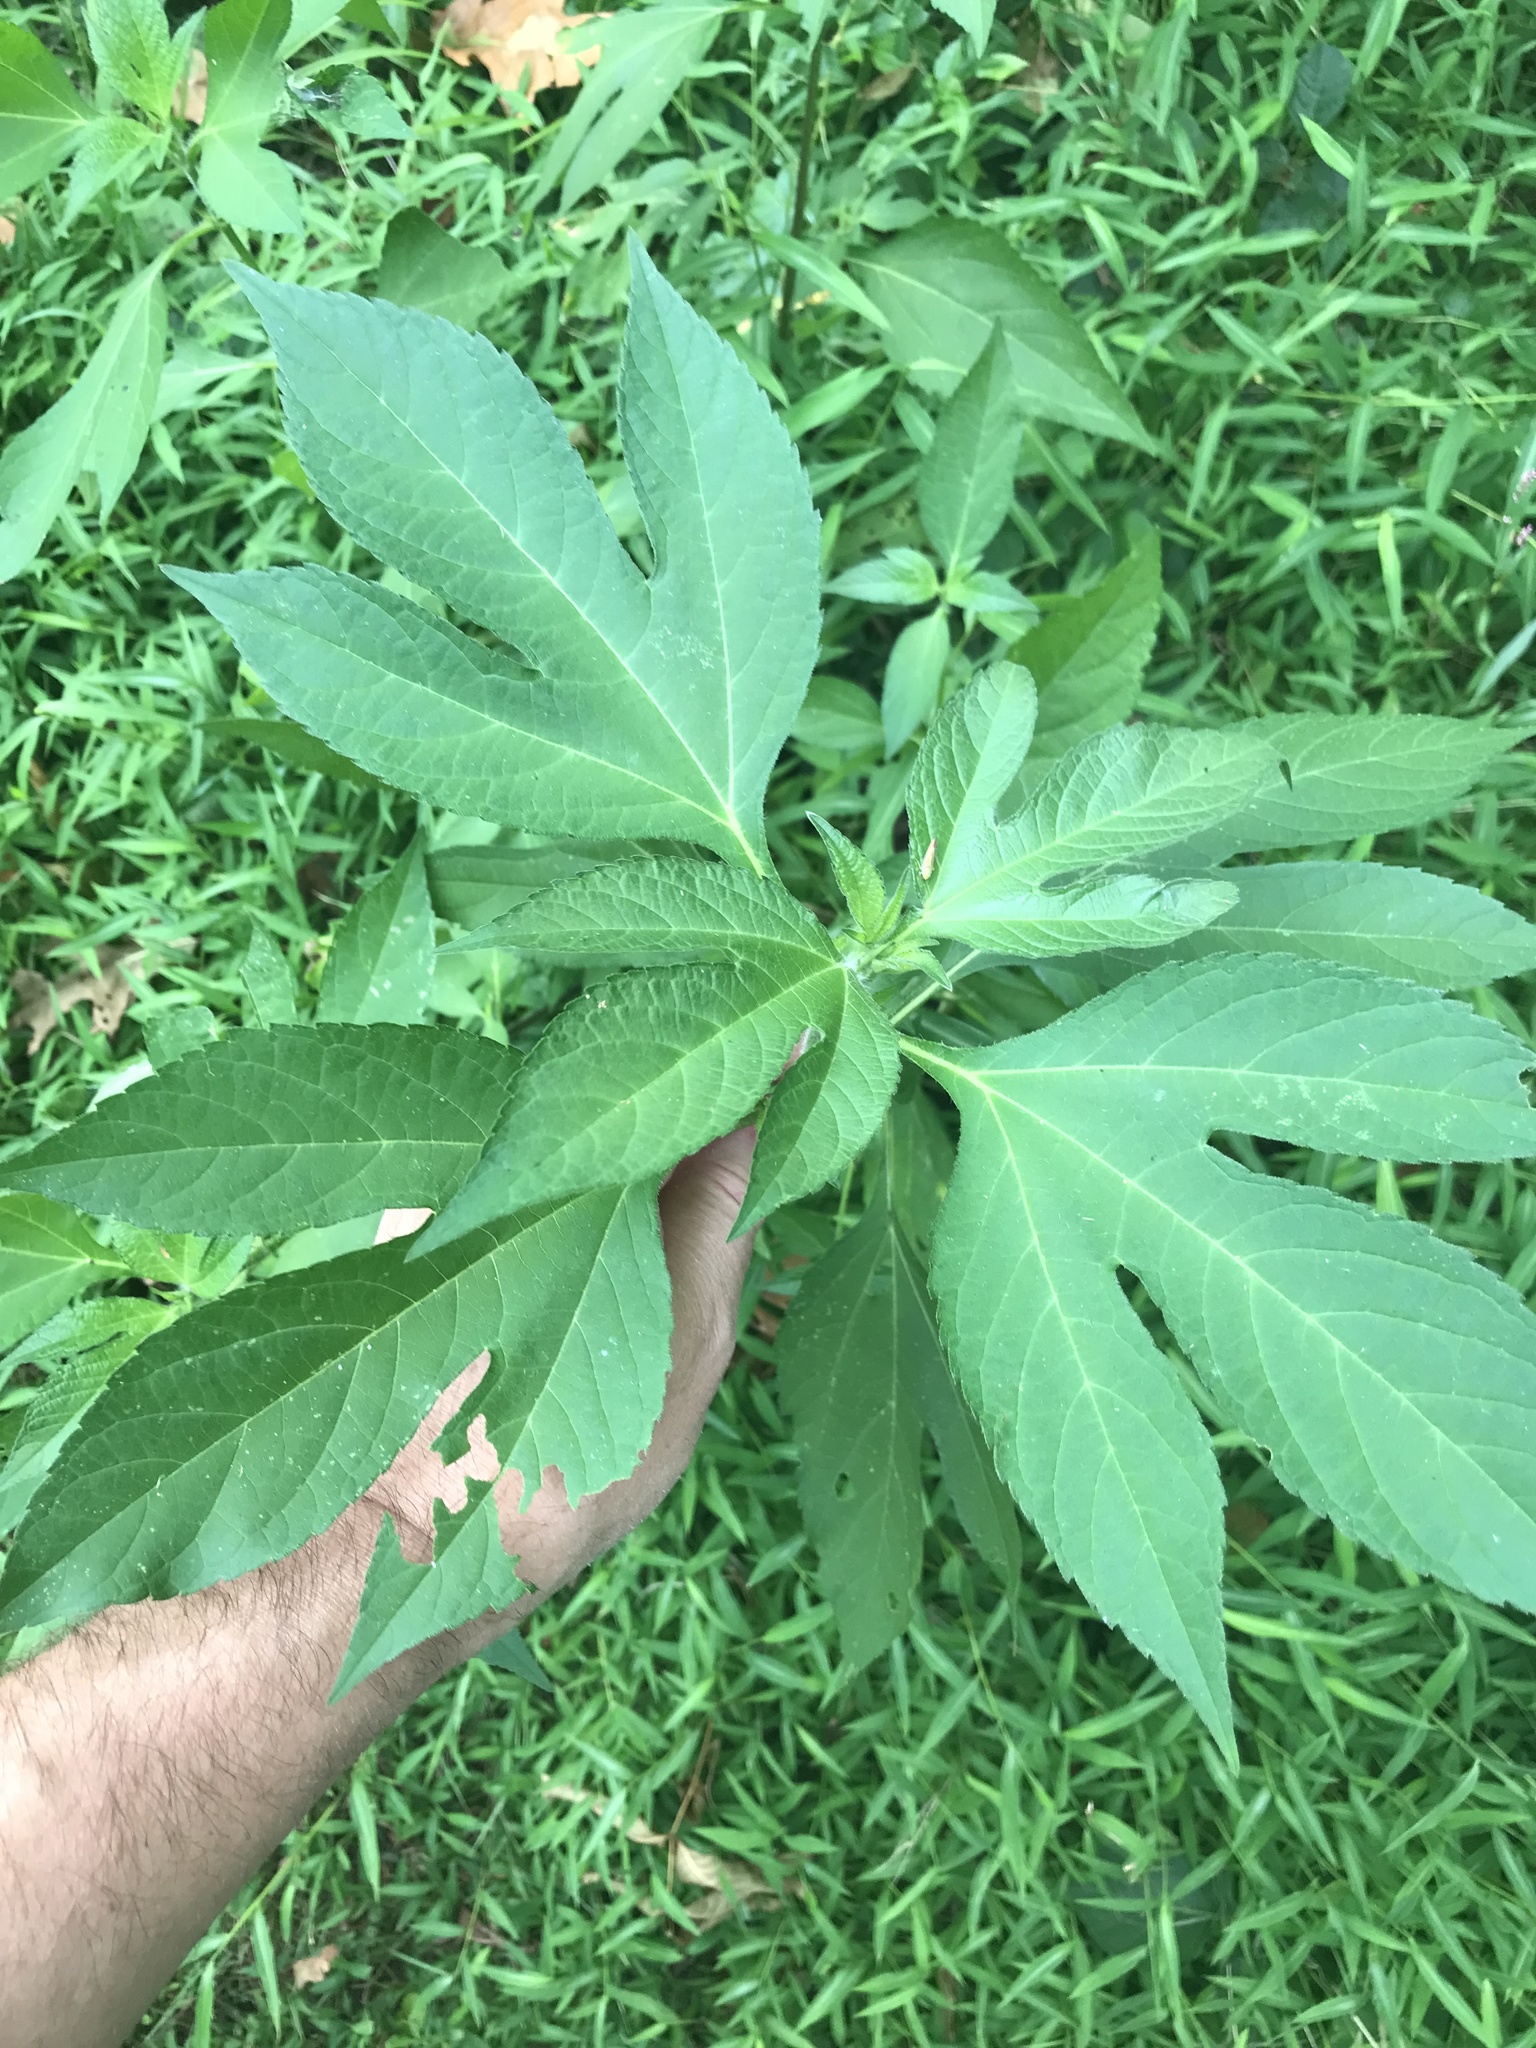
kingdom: Plantae
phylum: Tracheophyta
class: Magnoliopsida
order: Asterales
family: Asteraceae
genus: Ambrosia
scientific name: Ambrosia trifida
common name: Giant ragweed
